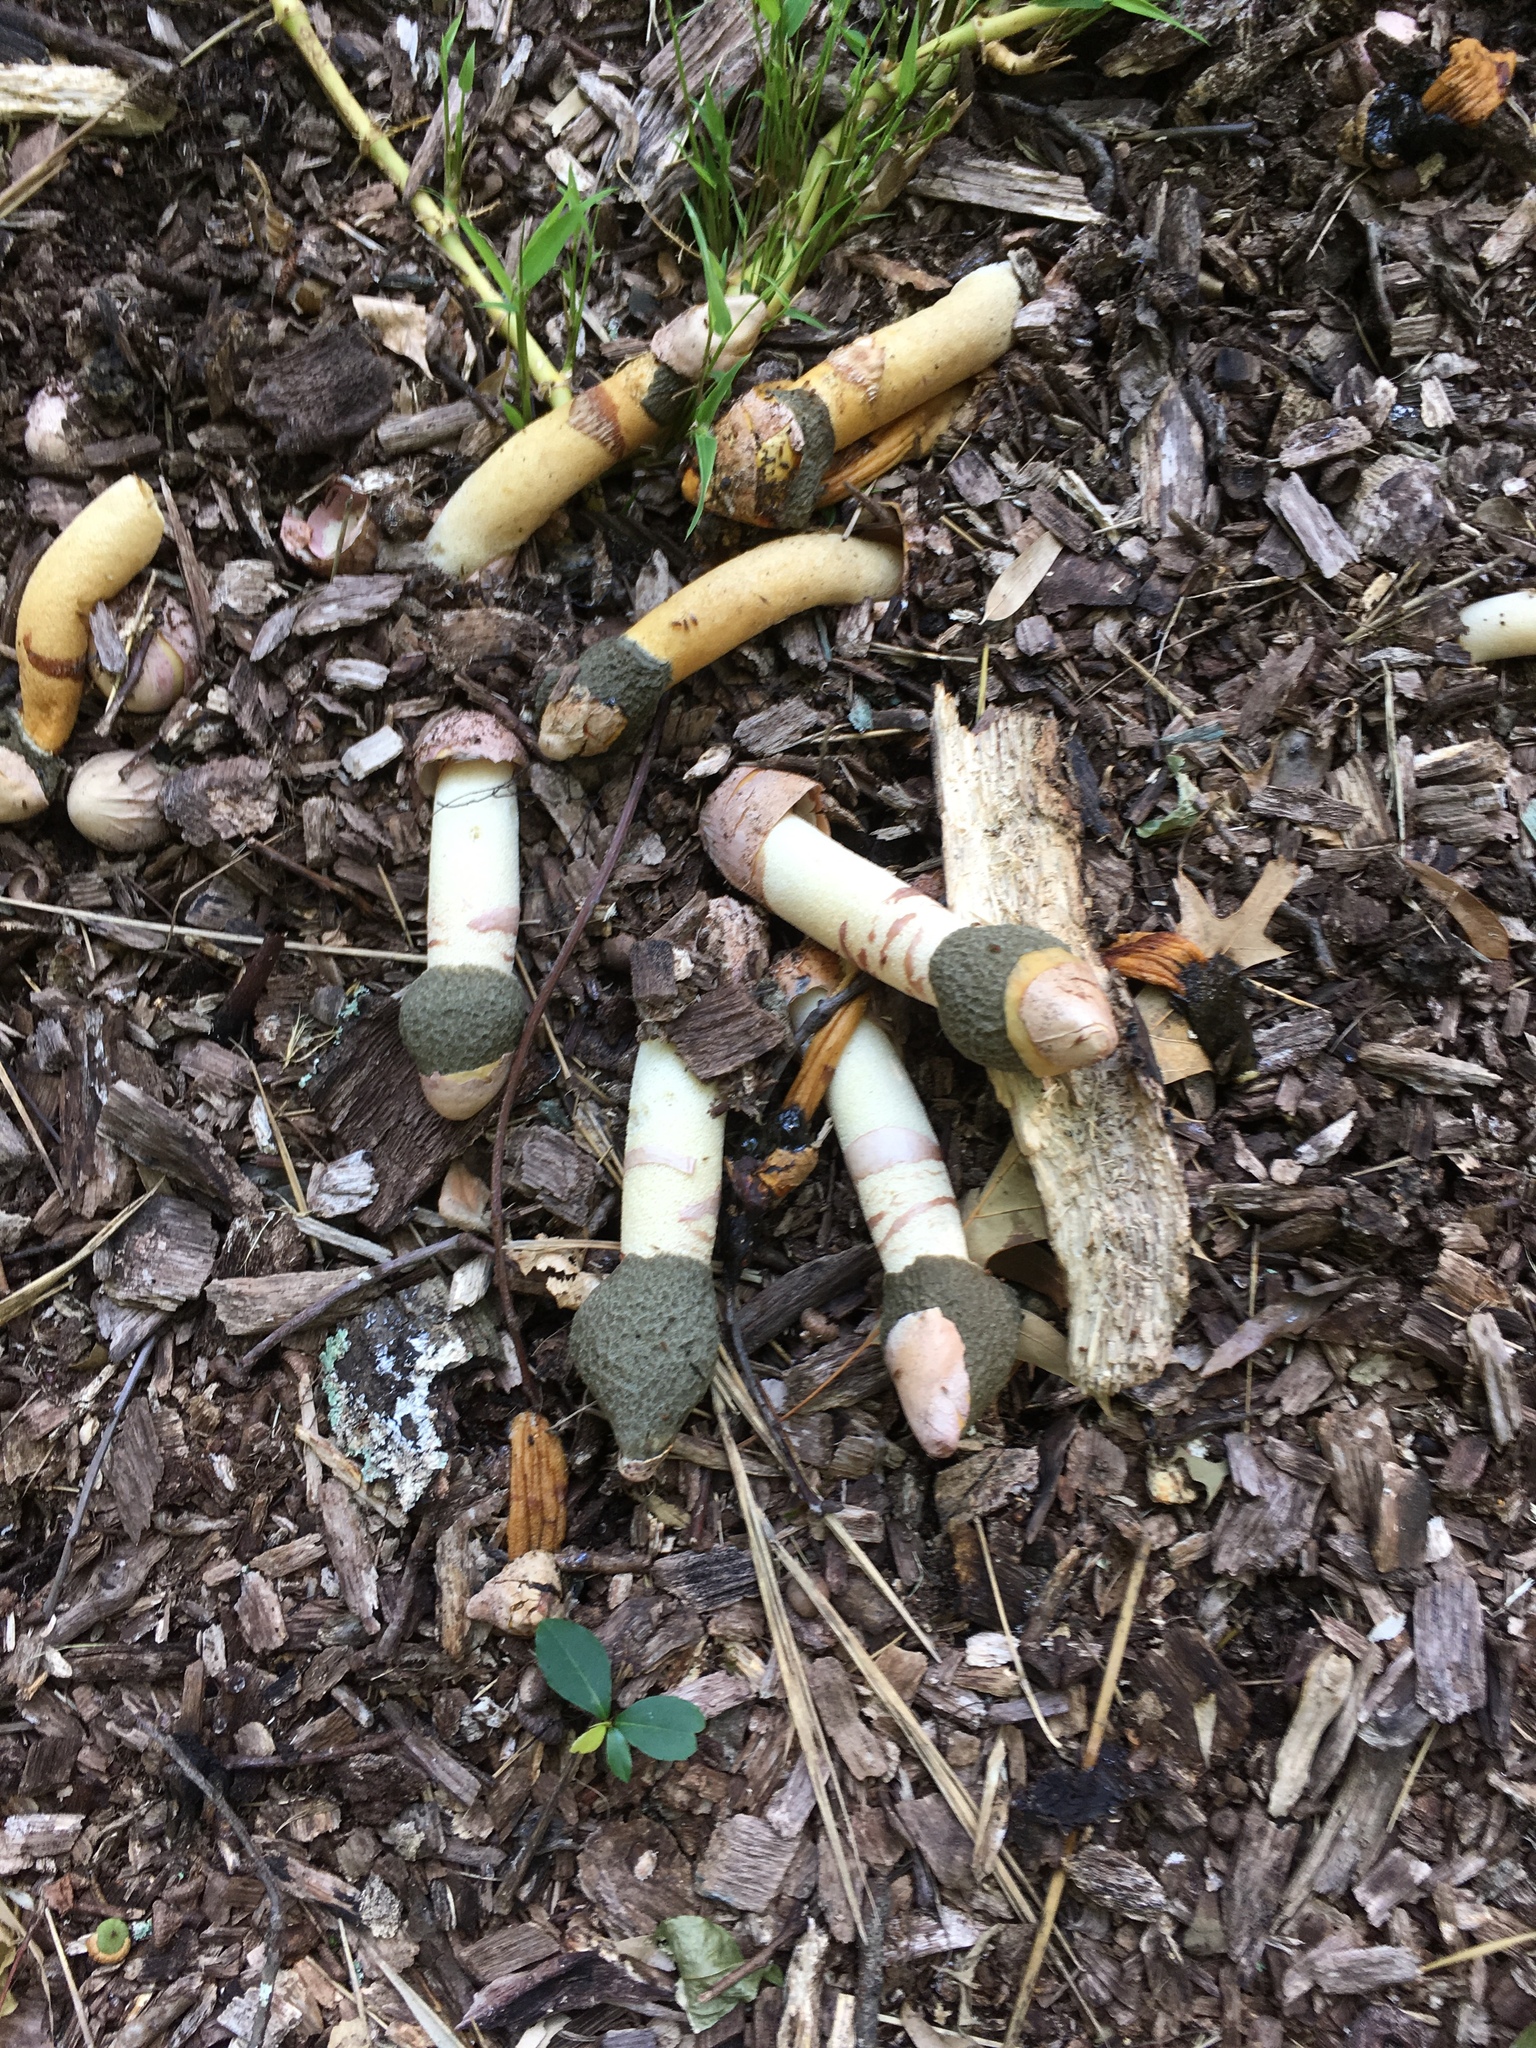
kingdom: Fungi
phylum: Basidiomycota
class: Agaricomycetes
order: Phallales
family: Phallaceae
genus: Phallus
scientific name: Phallus ravenelii
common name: Ravenel's stinkhorn
